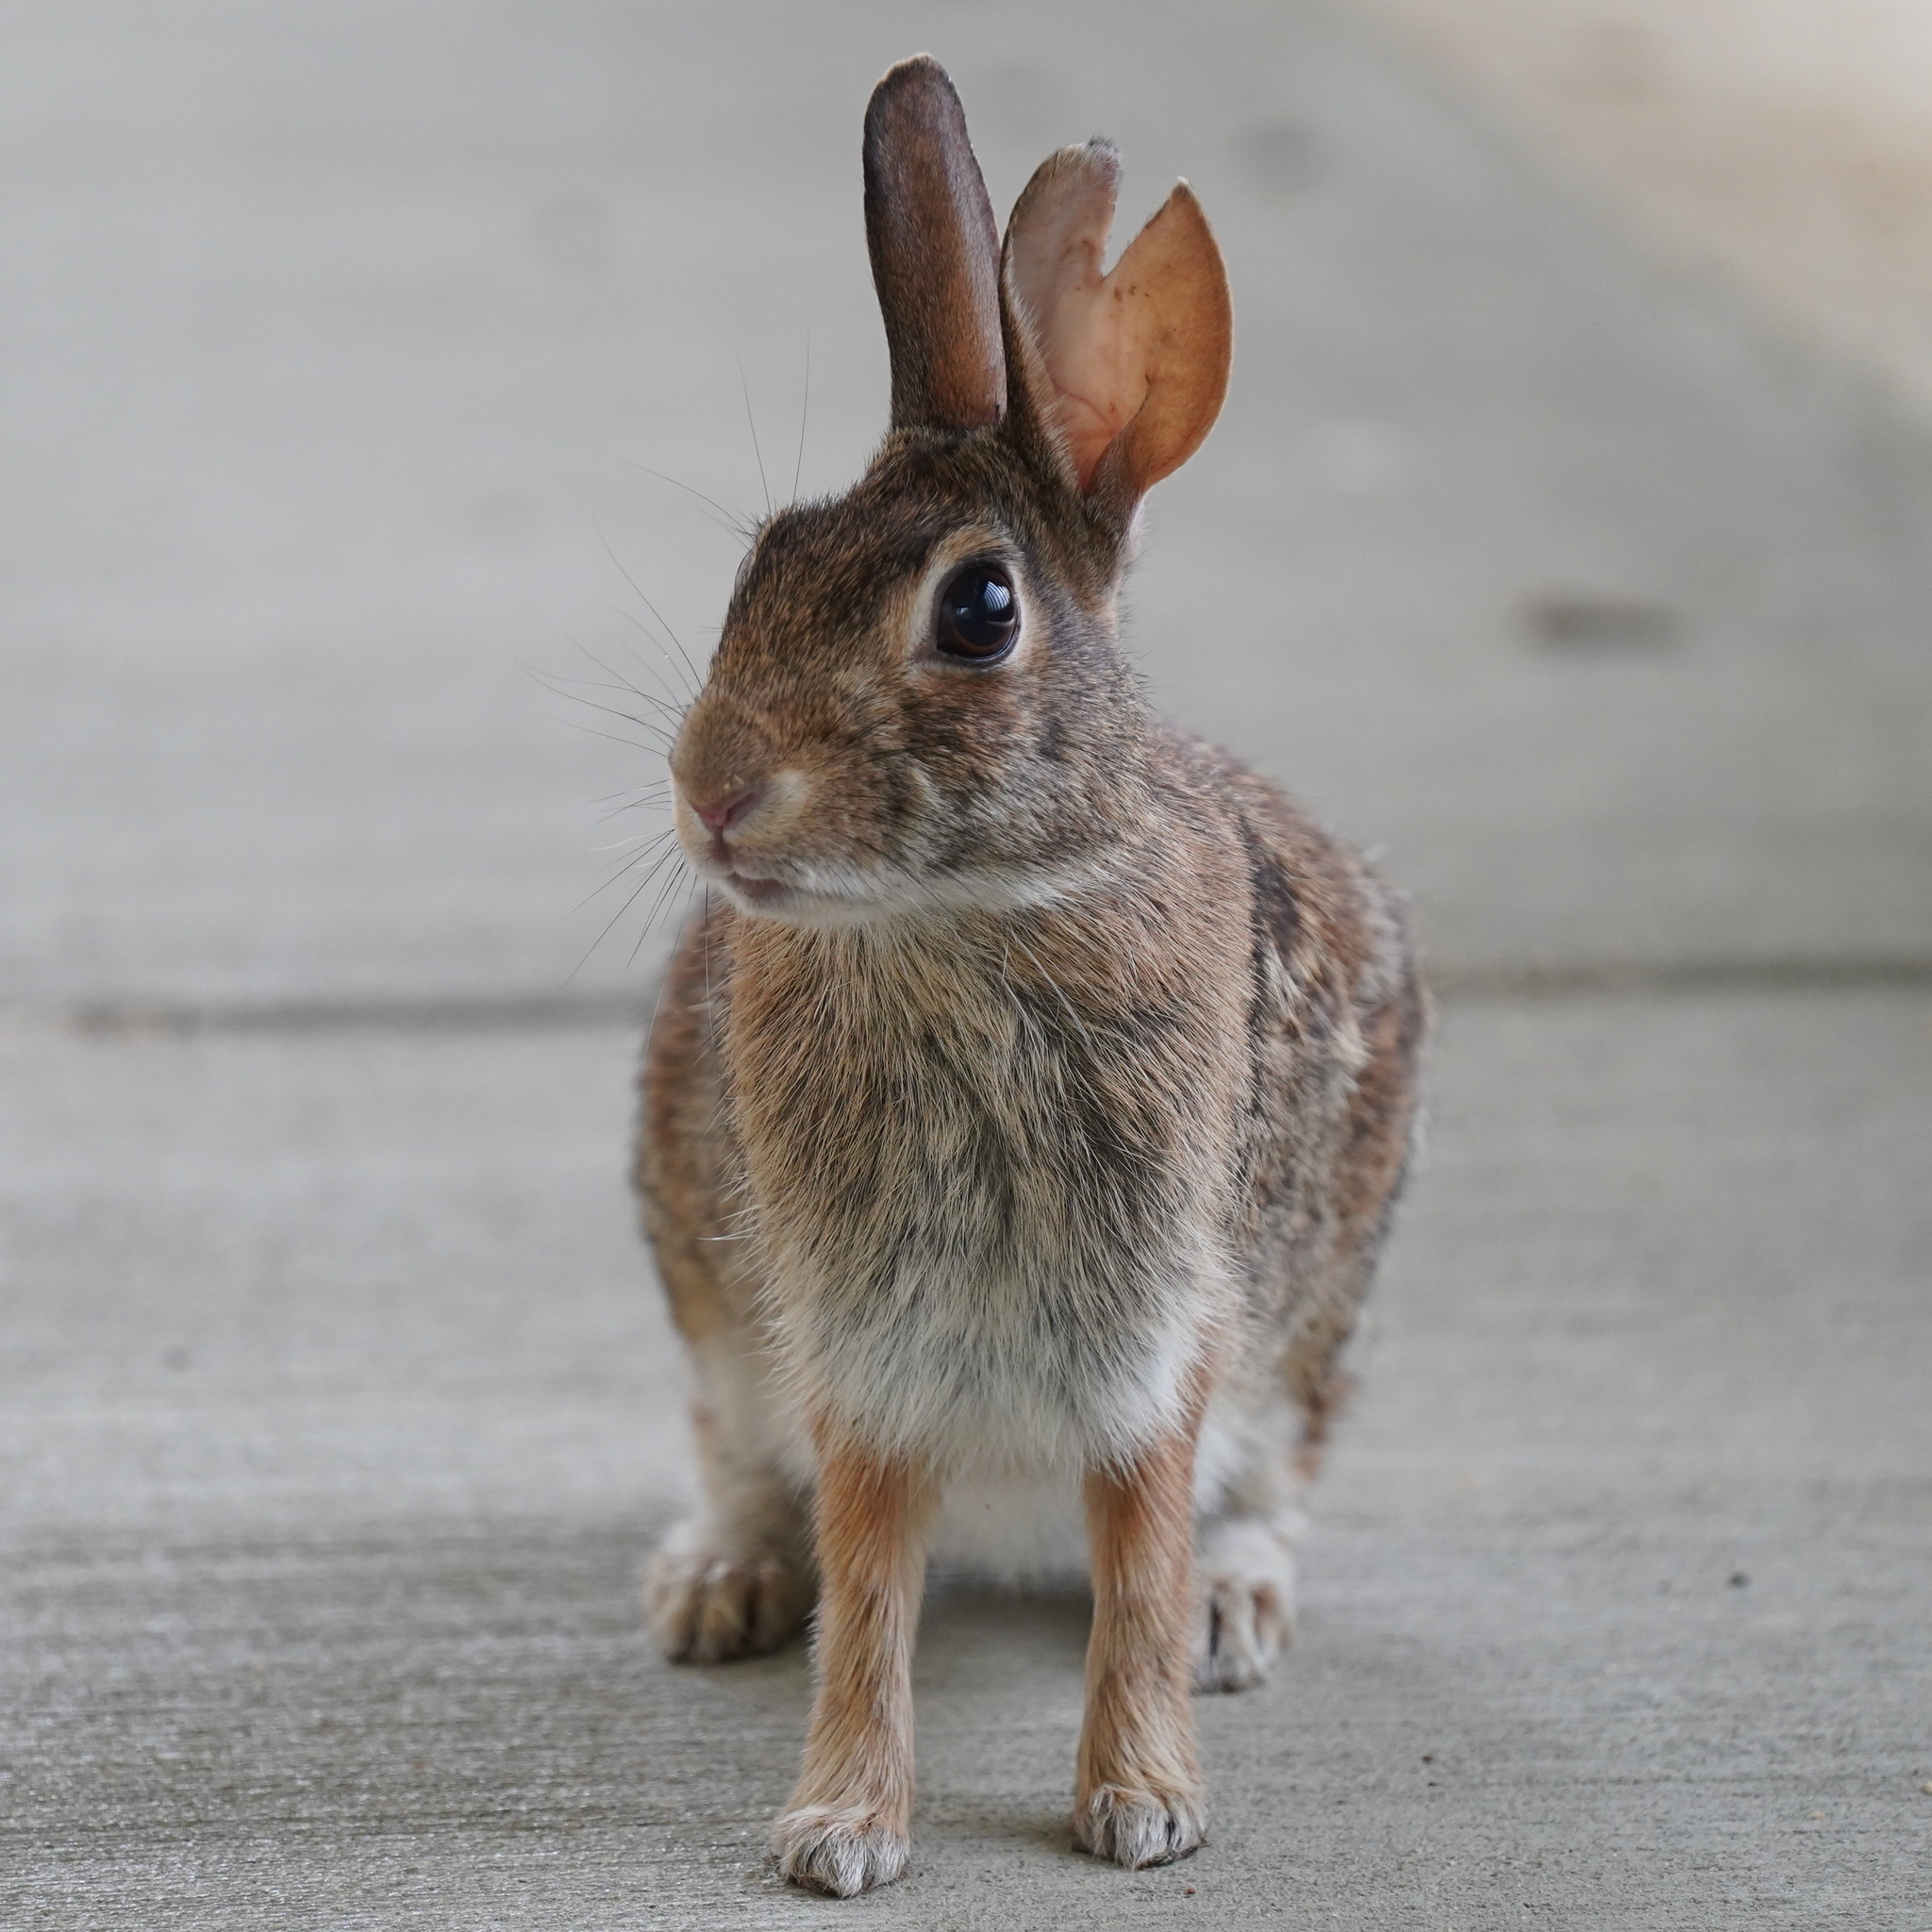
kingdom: Animalia
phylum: Chordata
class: Mammalia
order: Lagomorpha
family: Leporidae
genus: Sylvilagus
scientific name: Sylvilagus floridanus
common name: Eastern cottontail
